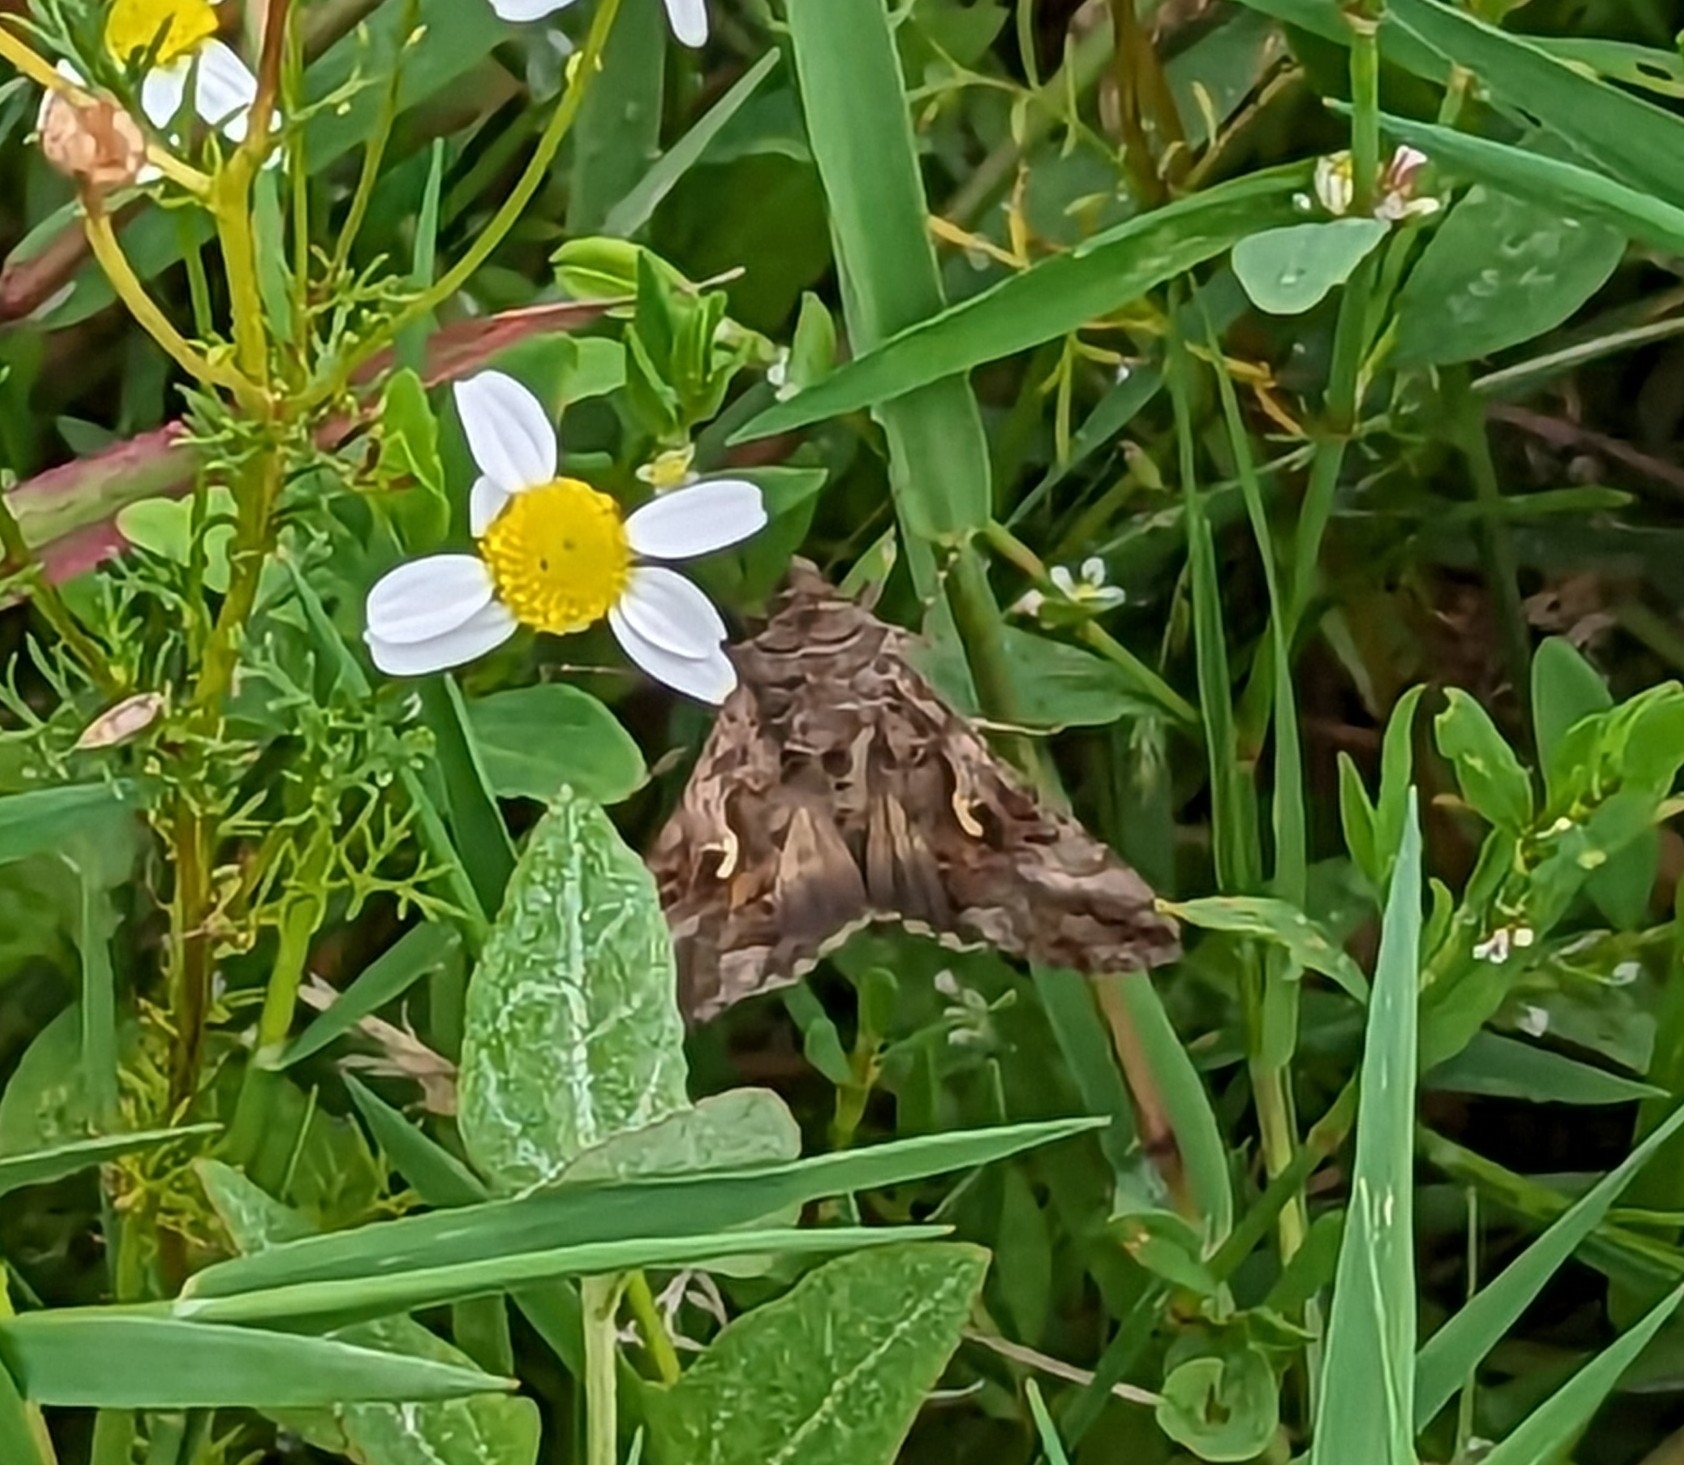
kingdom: Animalia
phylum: Arthropoda
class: Insecta
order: Lepidoptera
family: Noctuidae
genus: Autographa
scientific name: Autographa gamma
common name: Silver y
